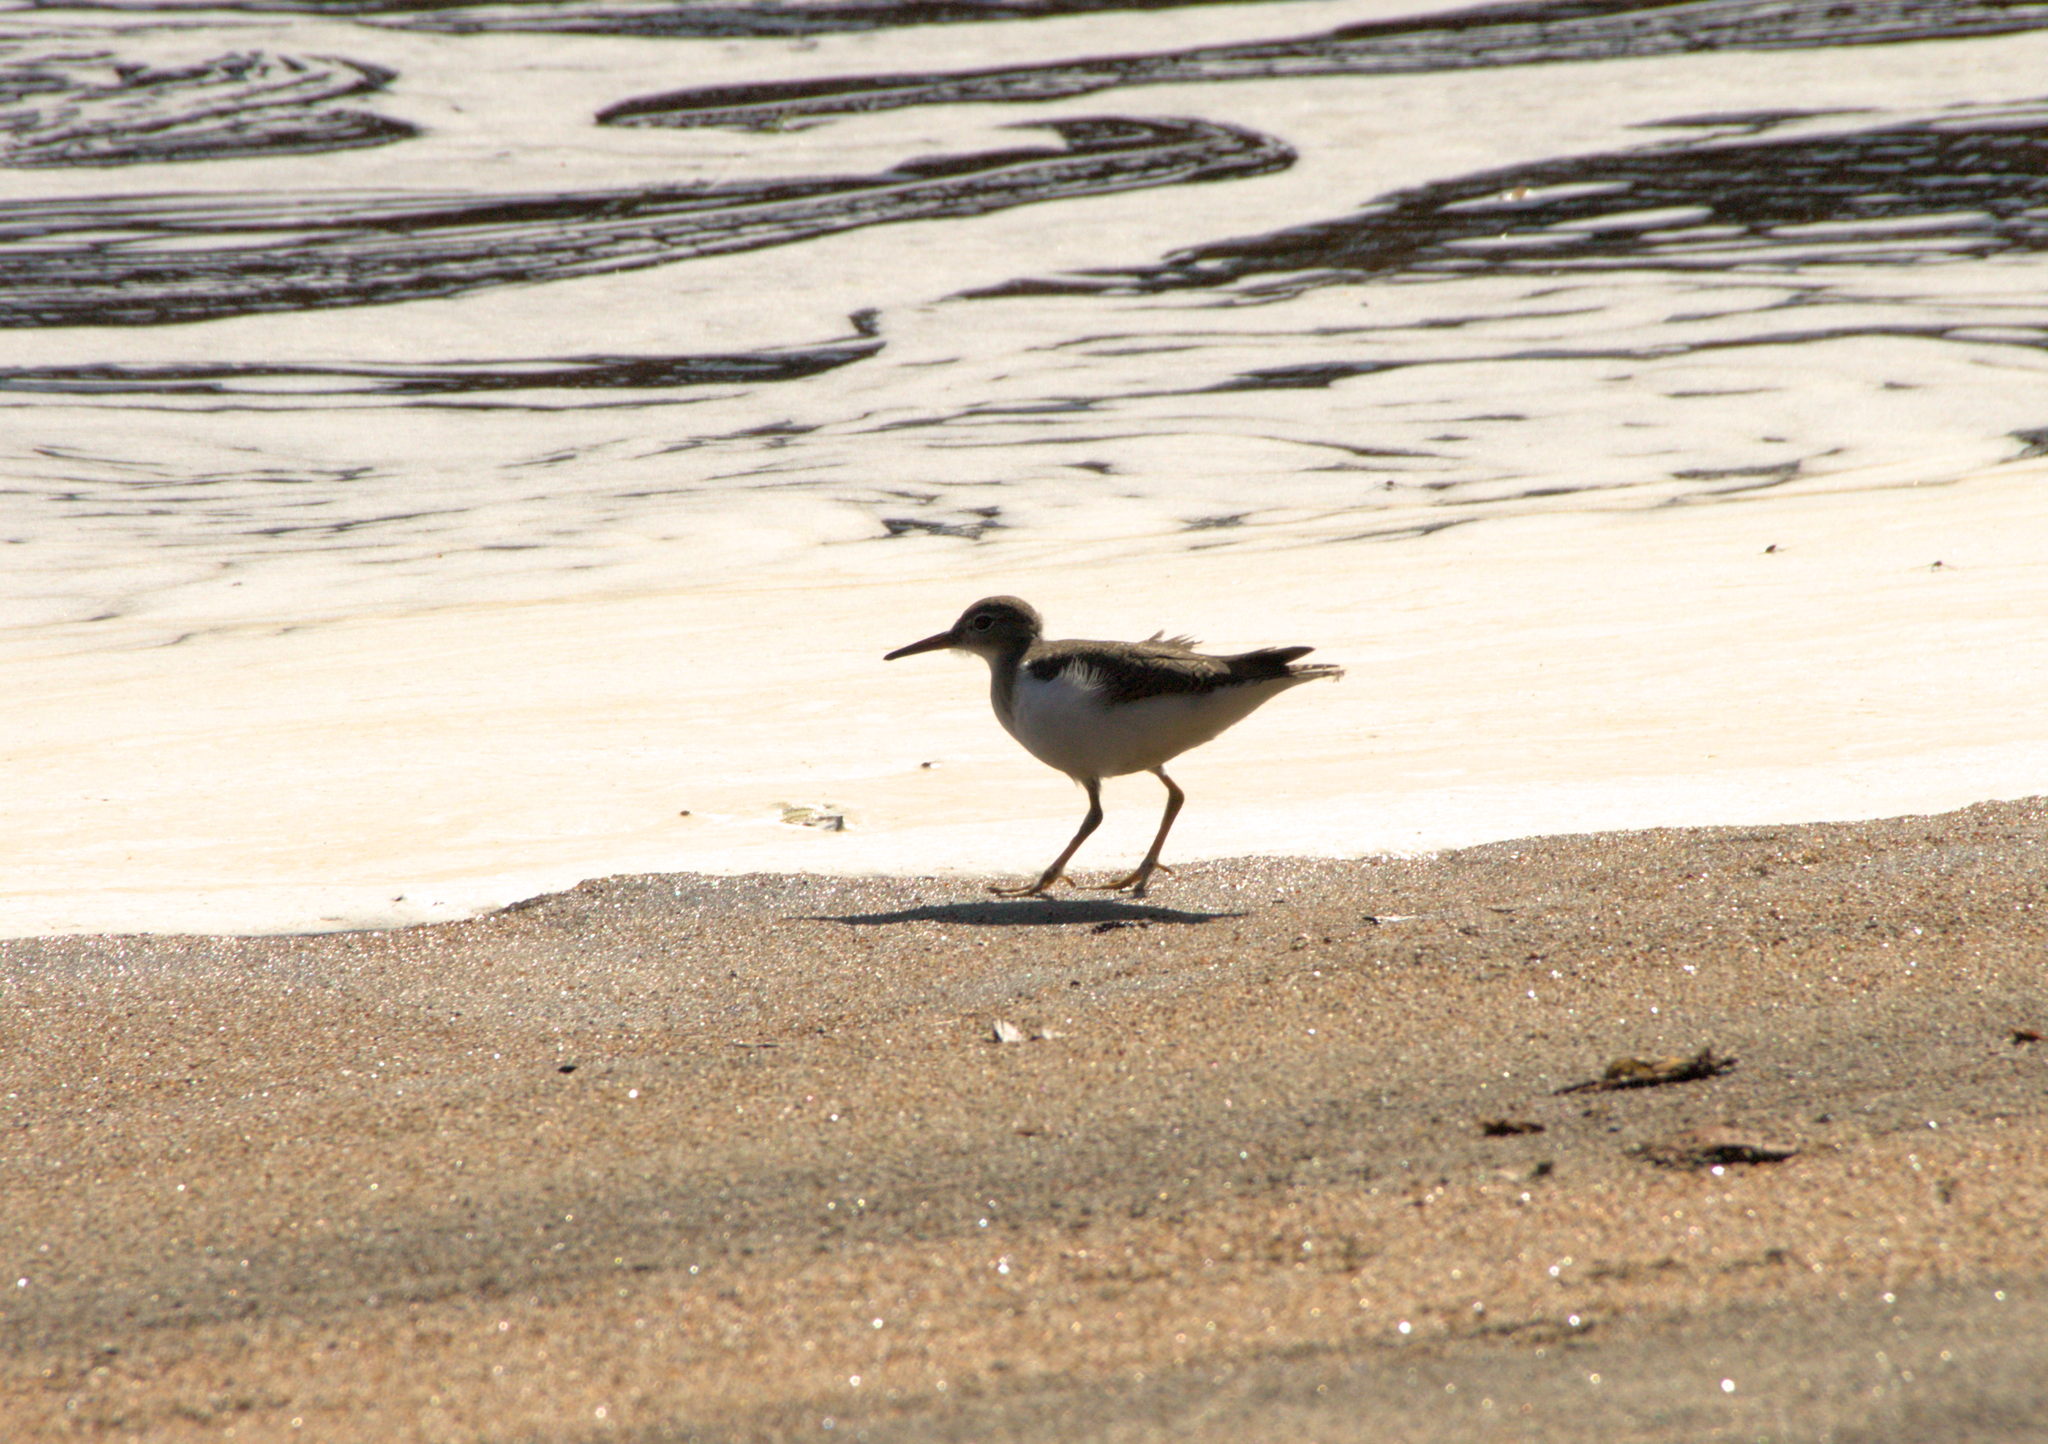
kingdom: Animalia
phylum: Chordata
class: Aves
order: Charadriiformes
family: Scolopacidae
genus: Actitis
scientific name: Actitis macularius
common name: Spotted sandpiper
